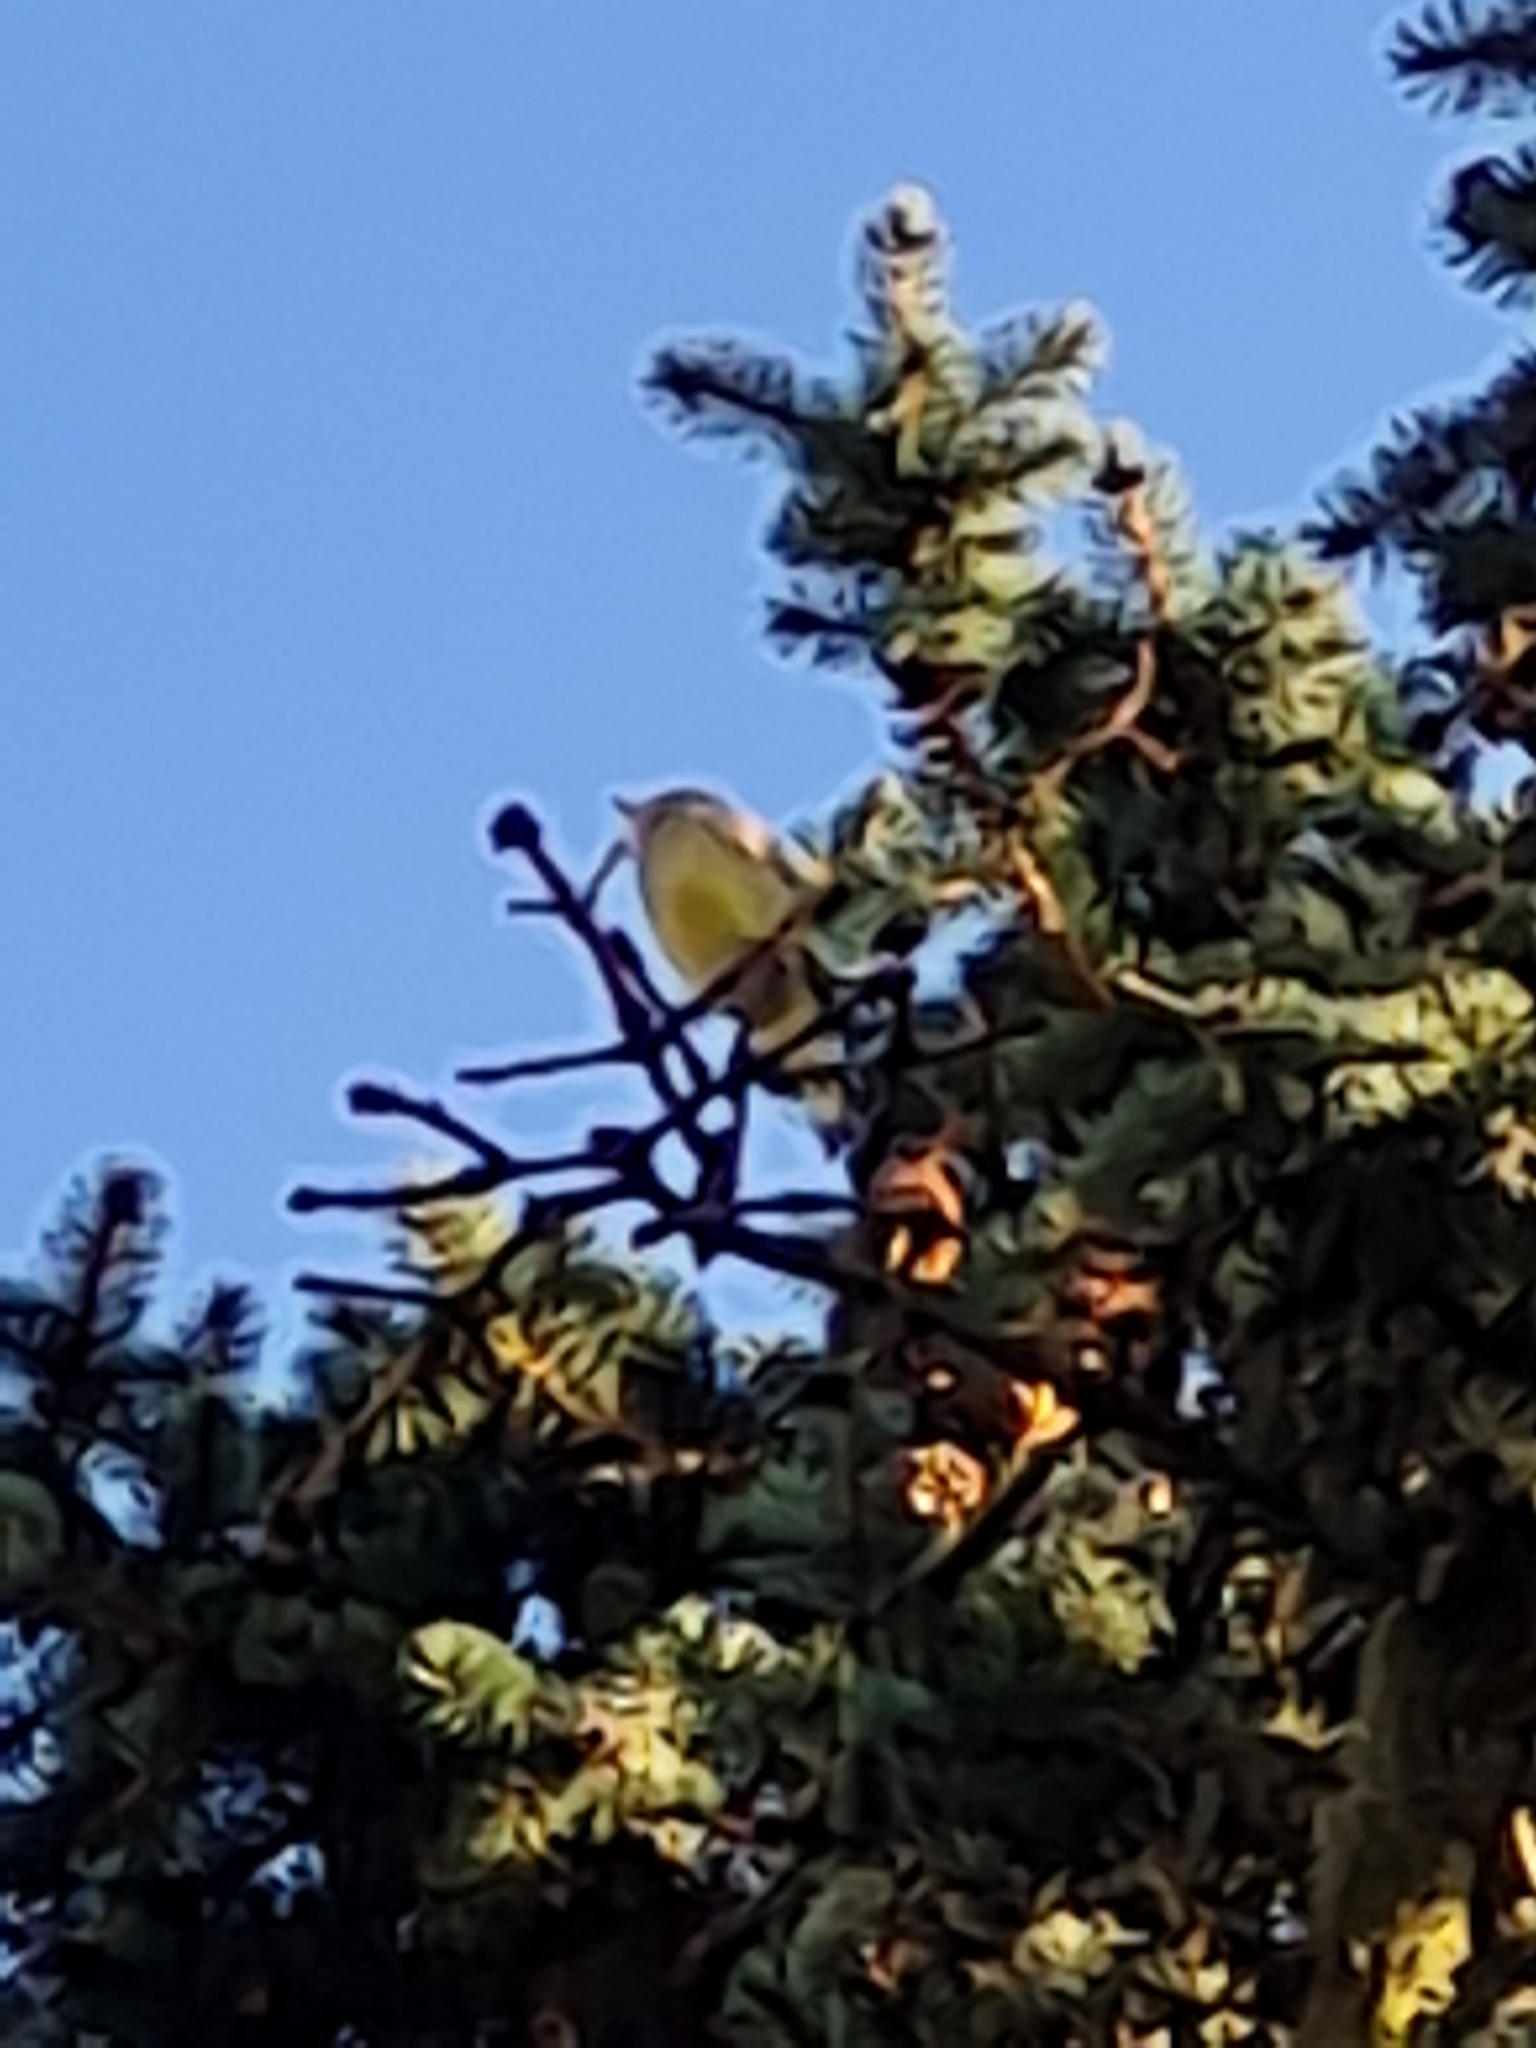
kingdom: Plantae
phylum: Tracheophyta
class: Liliopsida
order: Poales
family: Poaceae
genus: Chloris
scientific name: Chloris chloris
